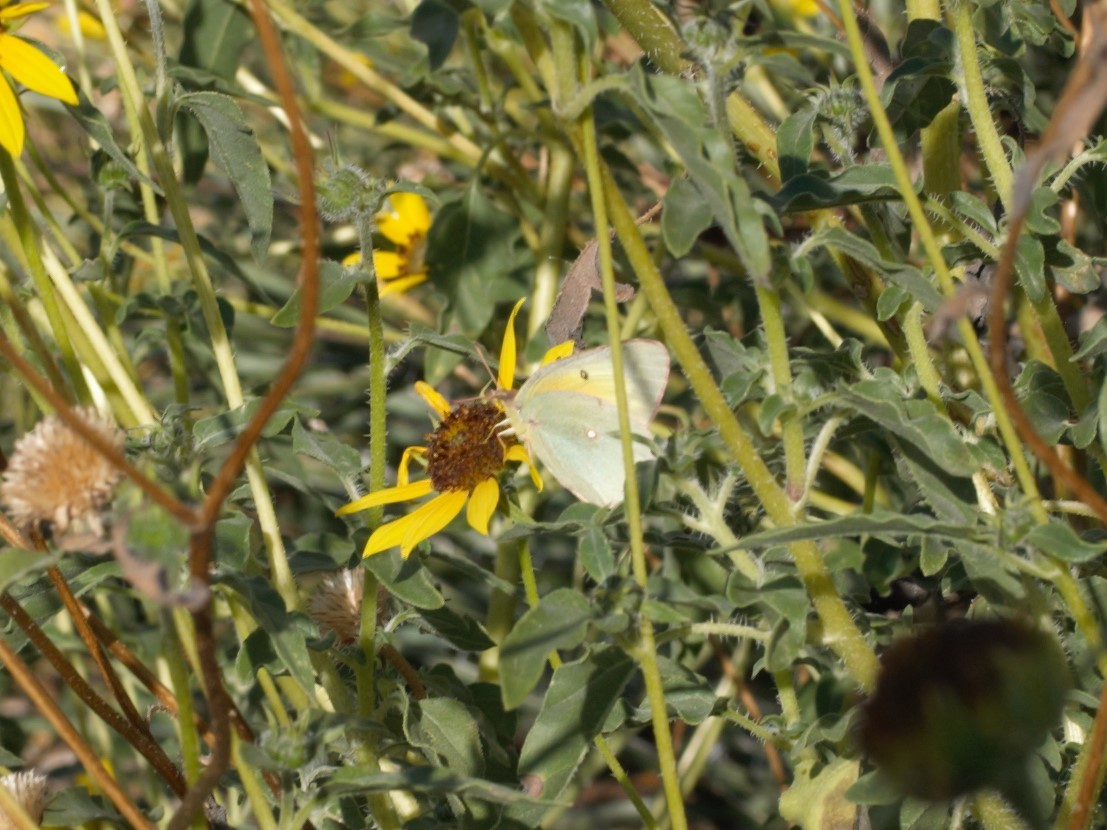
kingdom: Animalia
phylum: Arthropoda
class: Insecta
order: Lepidoptera
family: Pieridae
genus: Colias
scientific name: Colias eurytheme
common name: Alfalfa butterfly
